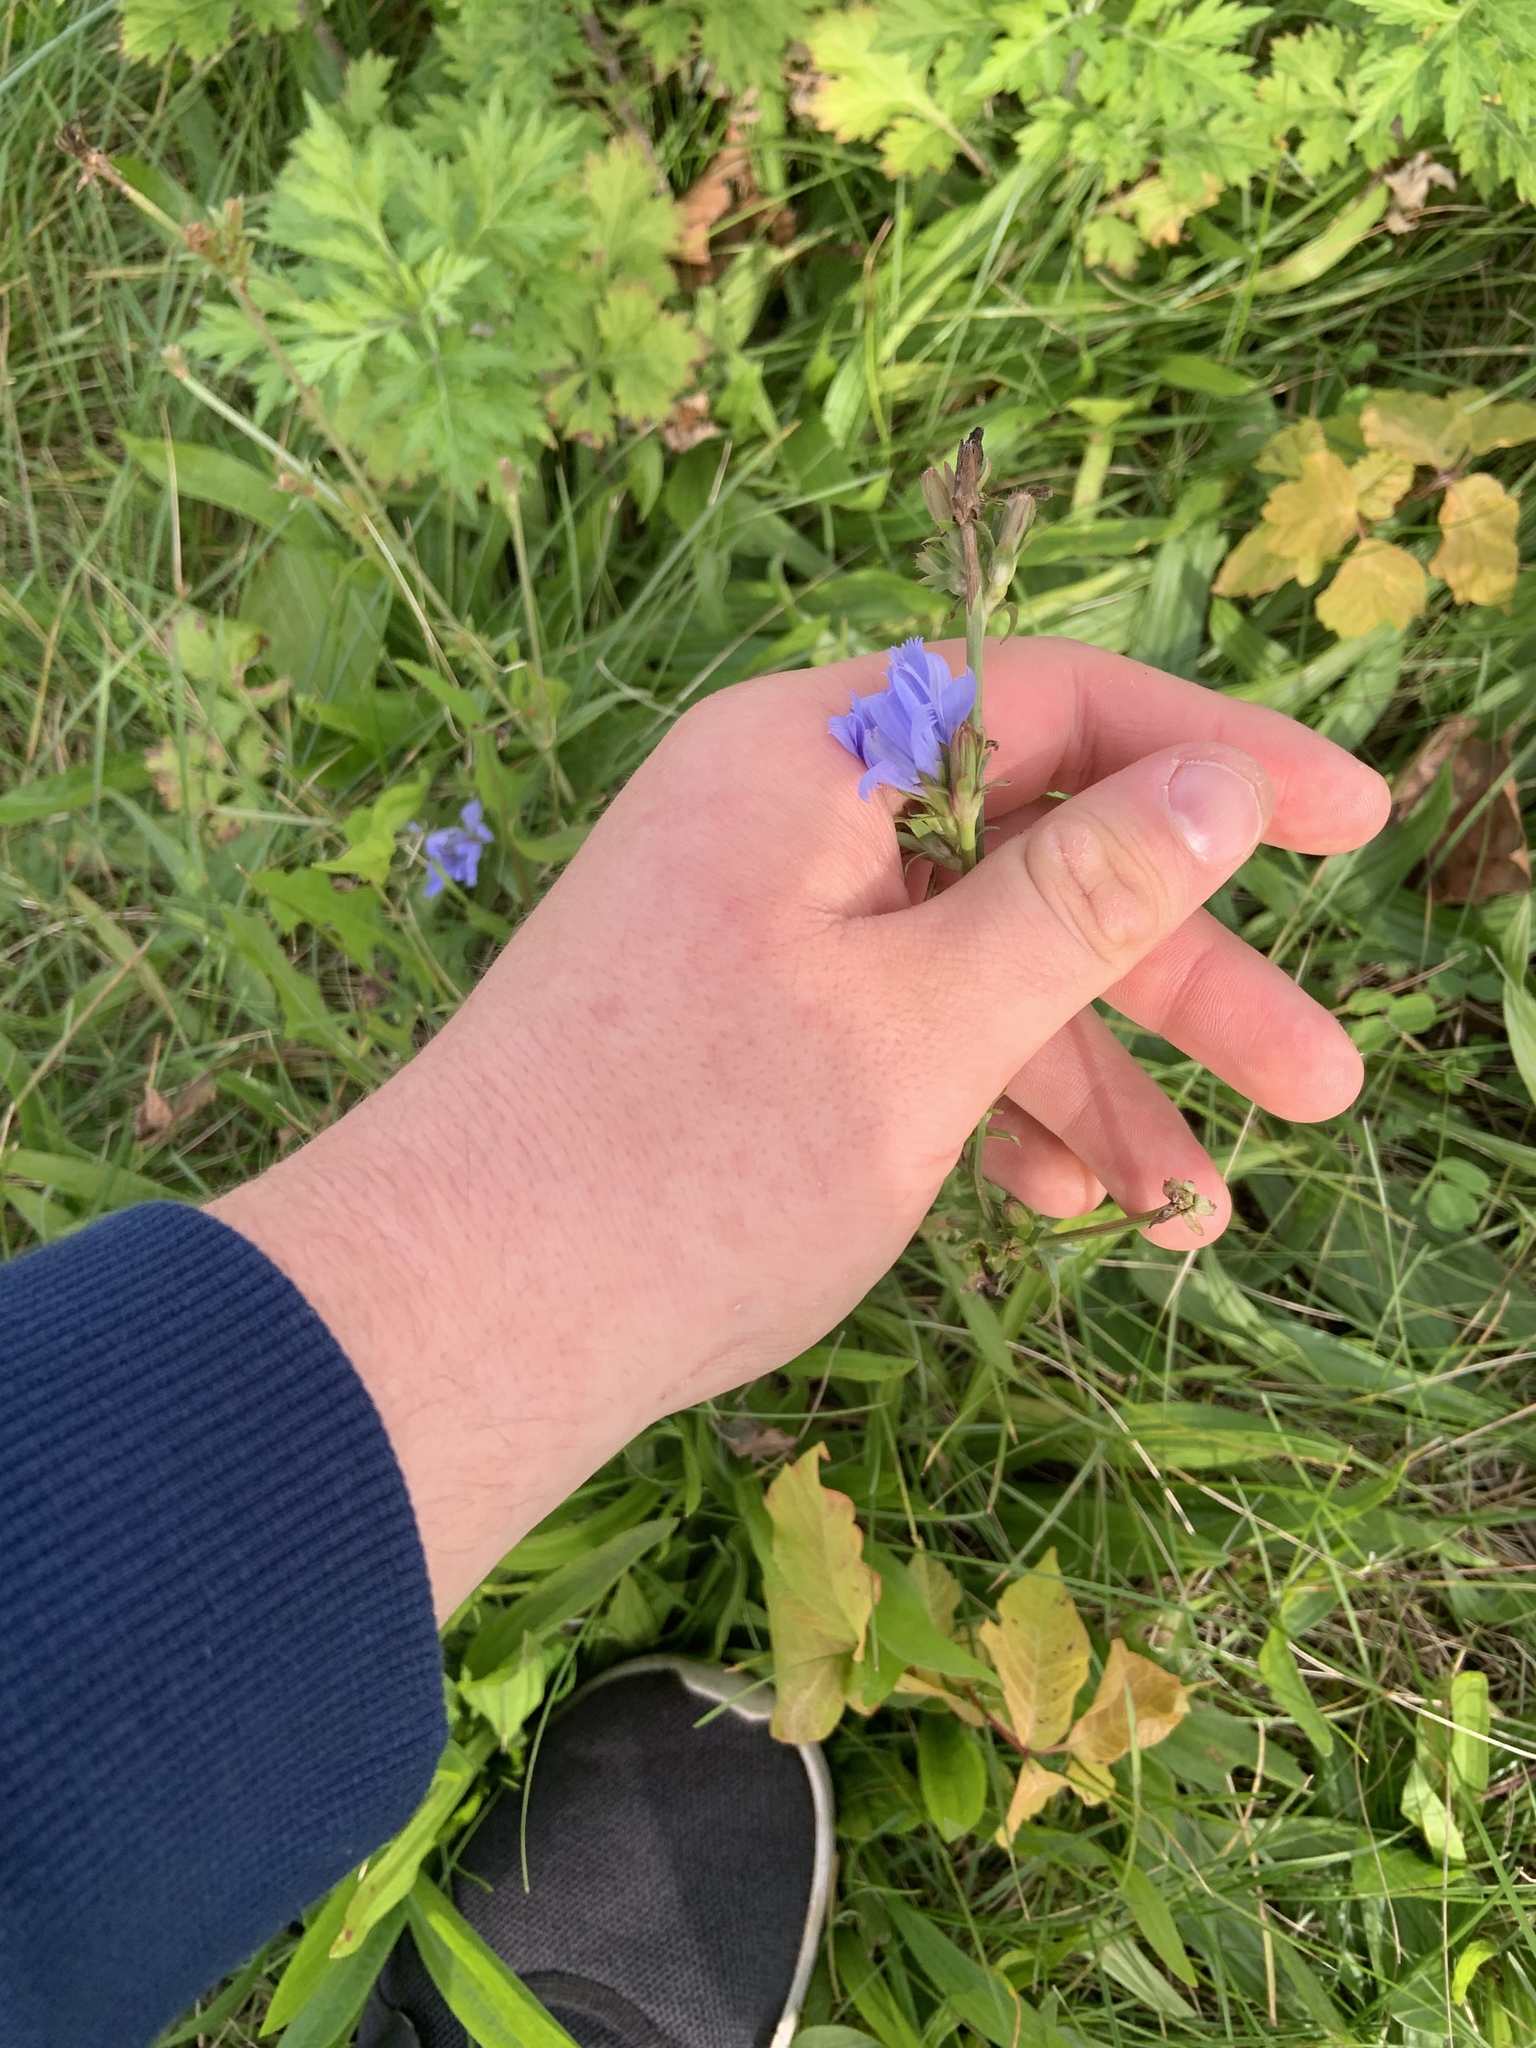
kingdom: Plantae
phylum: Tracheophyta
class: Magnoliopsida
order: Asterales
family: Asteraceae
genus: Cichorium
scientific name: Cichorium intybus
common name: Chicory
